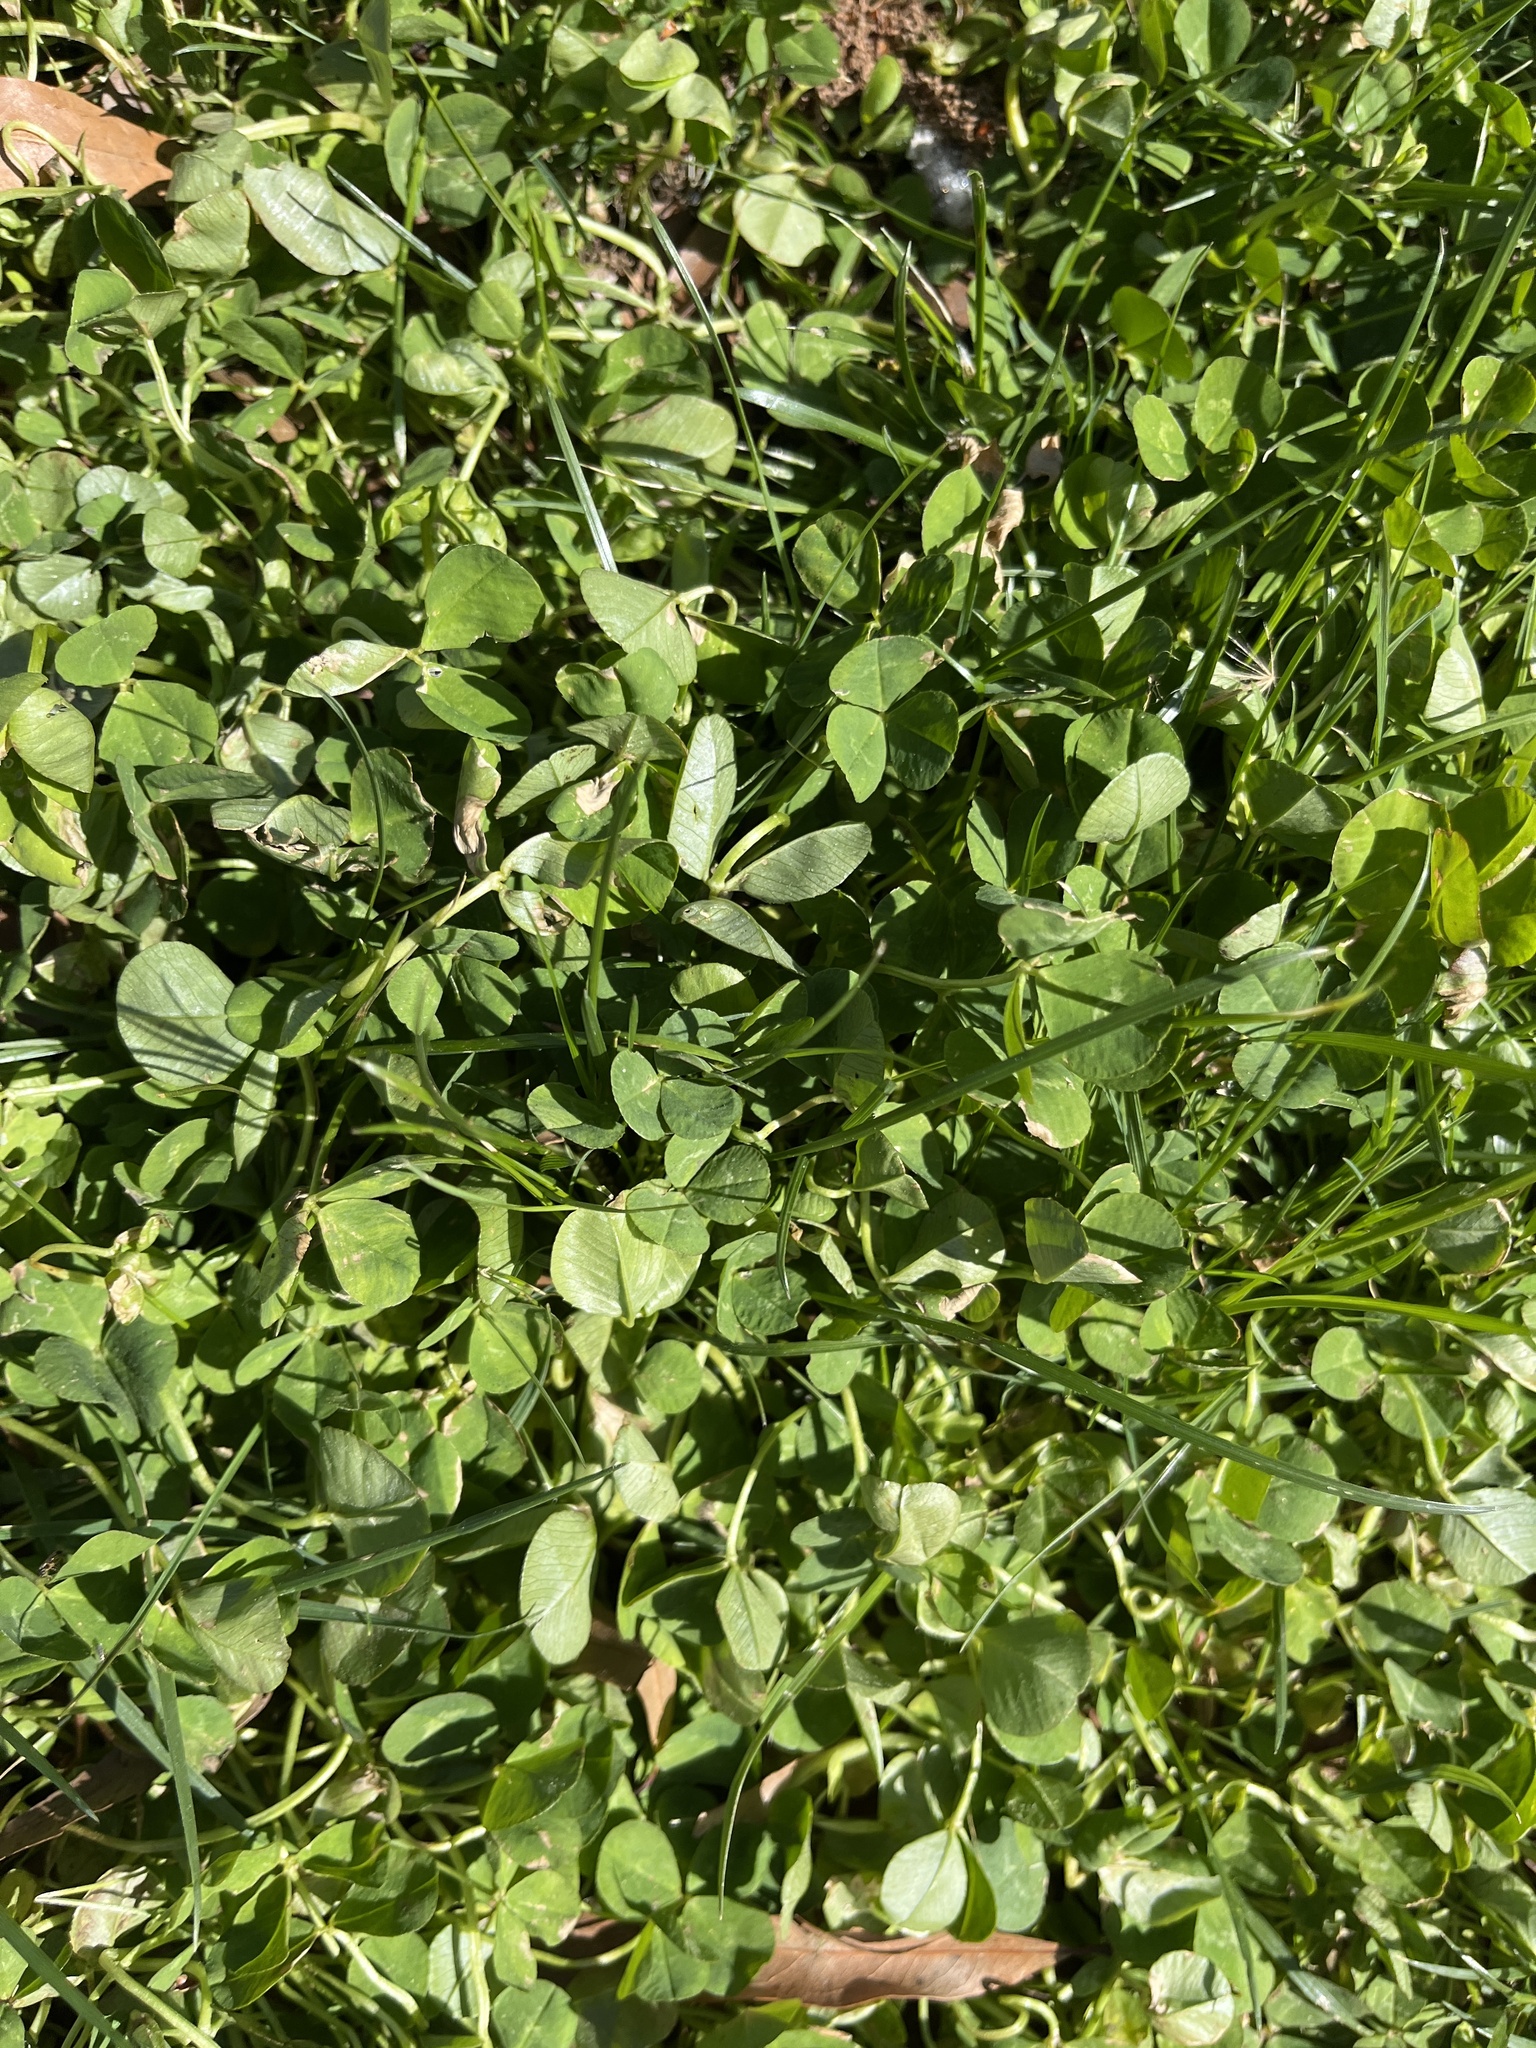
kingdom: Plantae
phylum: Tracheophyta
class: Magnoliopsida
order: Fabales
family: Fabaceae
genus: Trifolium
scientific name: Trifolium repens
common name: White clover
